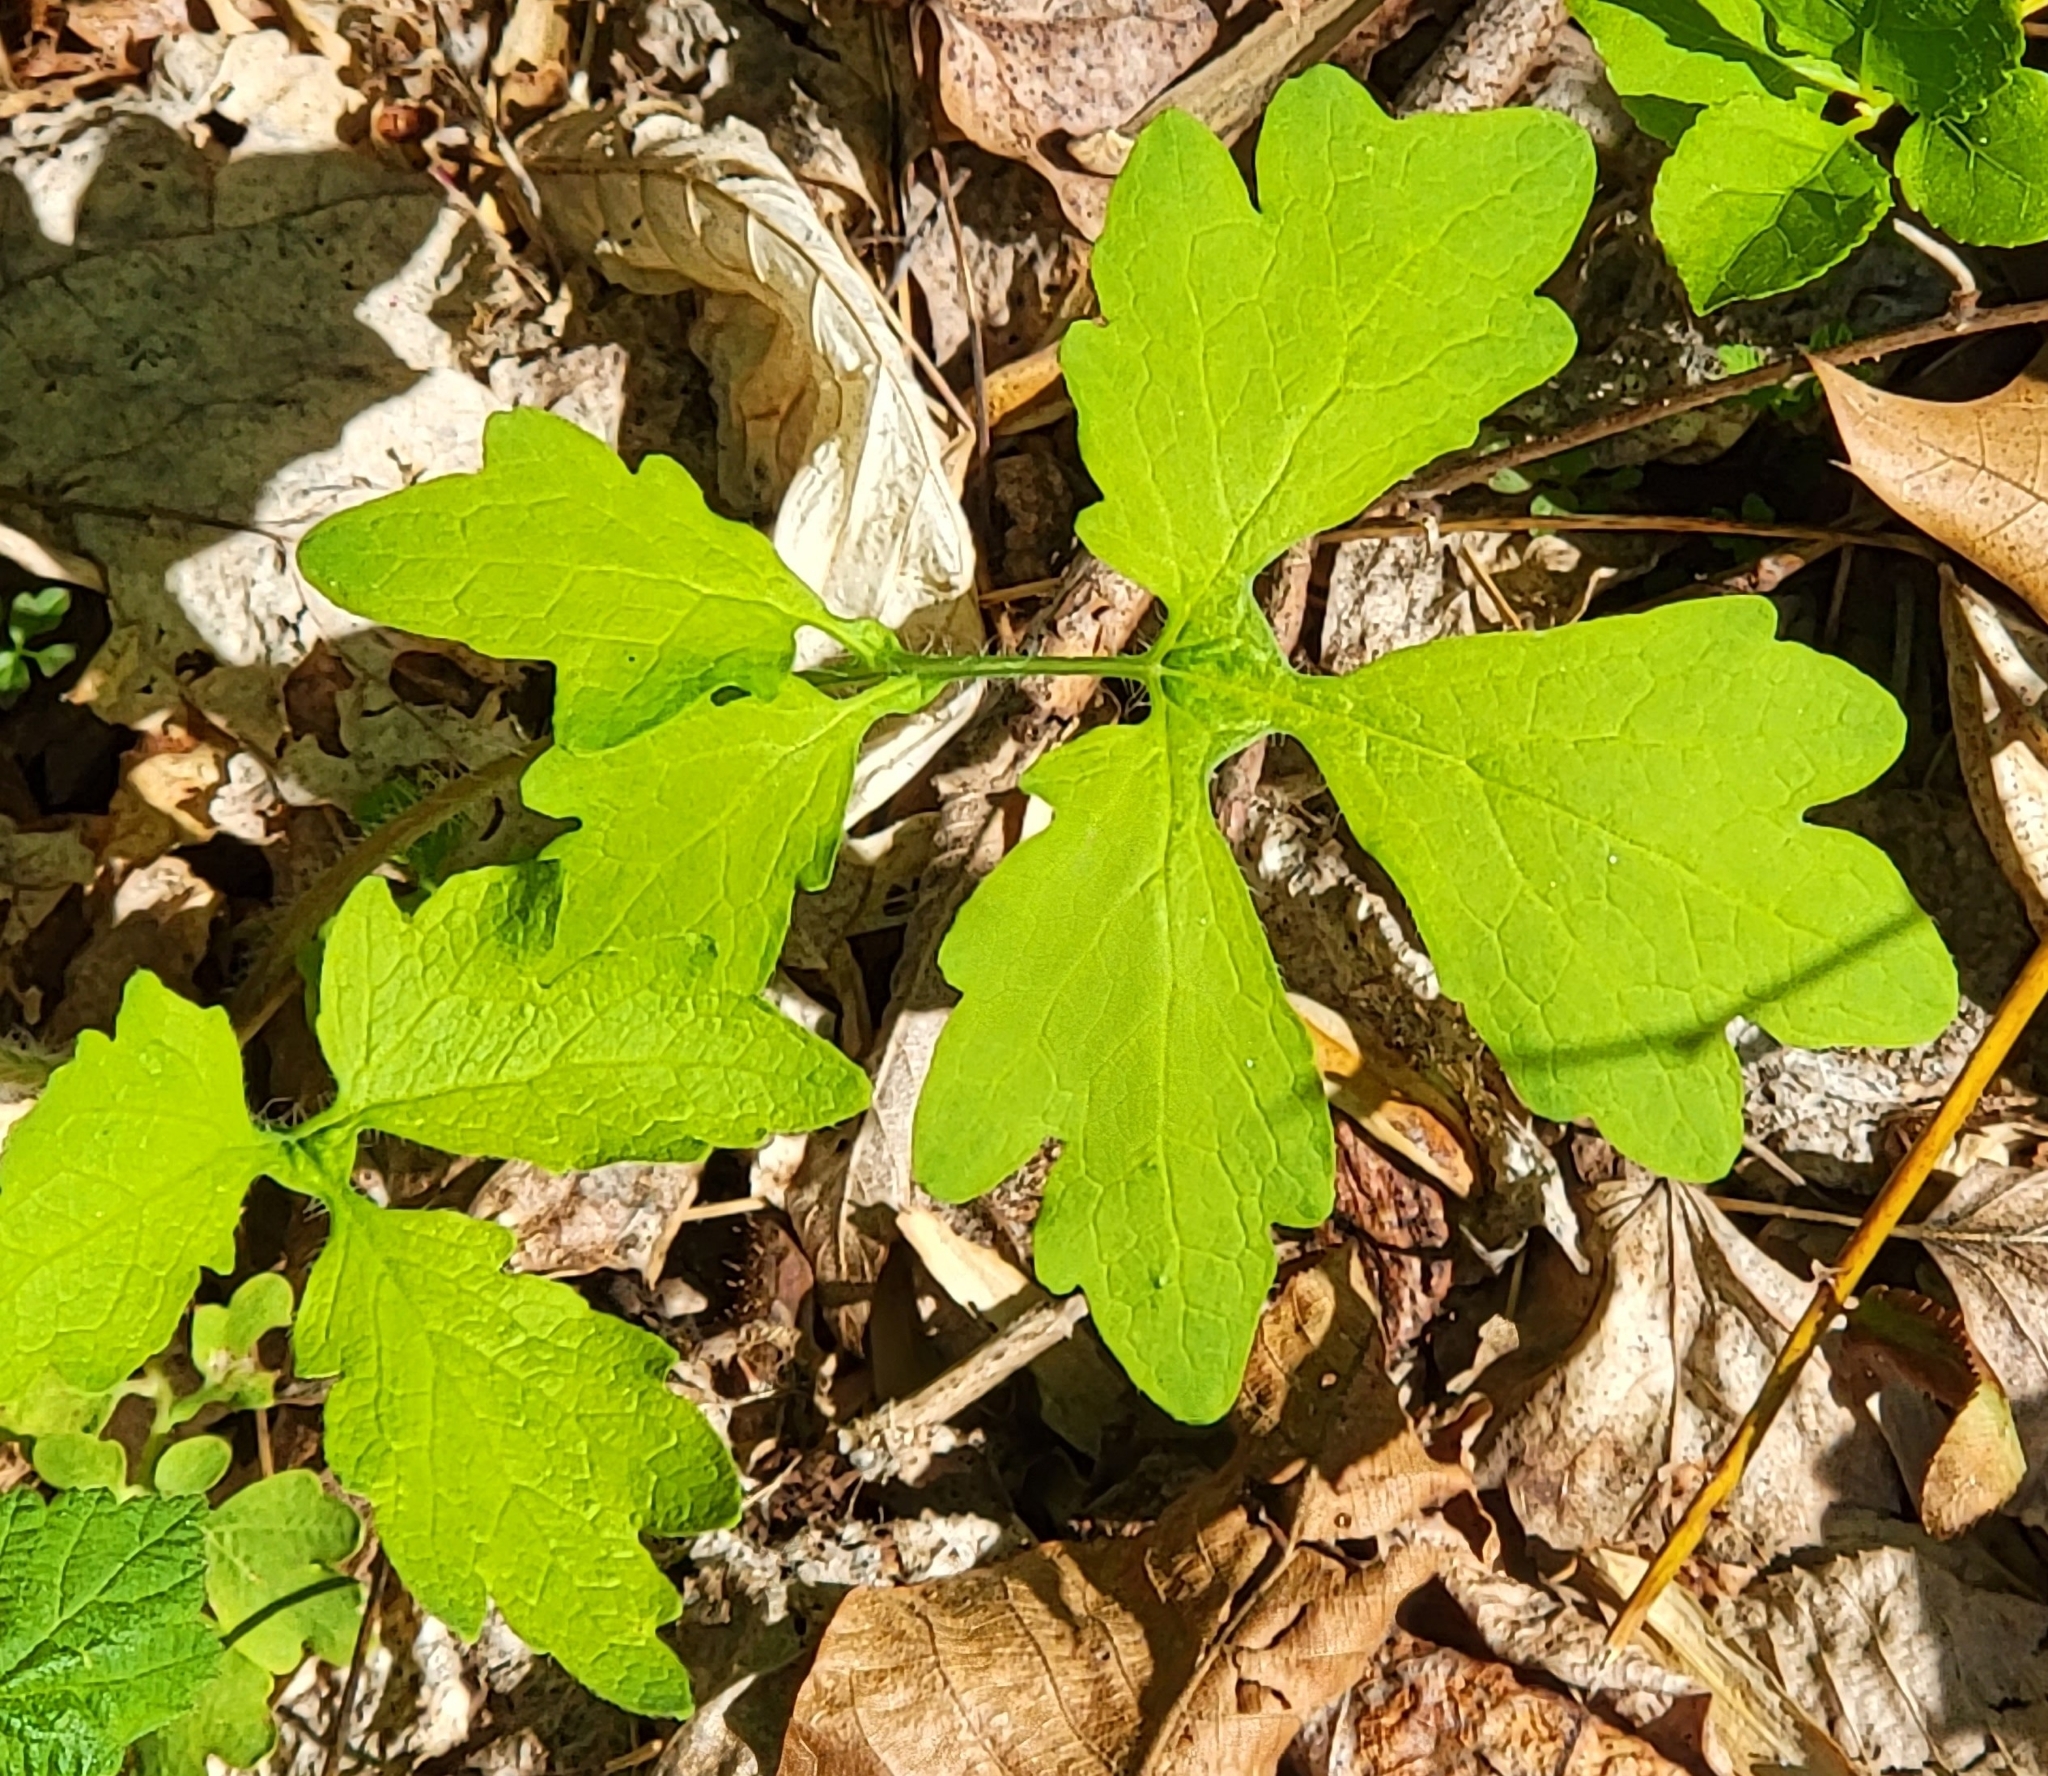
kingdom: Plantae
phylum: Tracheophyta
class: Magnoliopsida
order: Ranunculales
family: Papaveraceae
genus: Stylophorum
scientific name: Stylophorum diphyllum
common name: Celandine poppy
